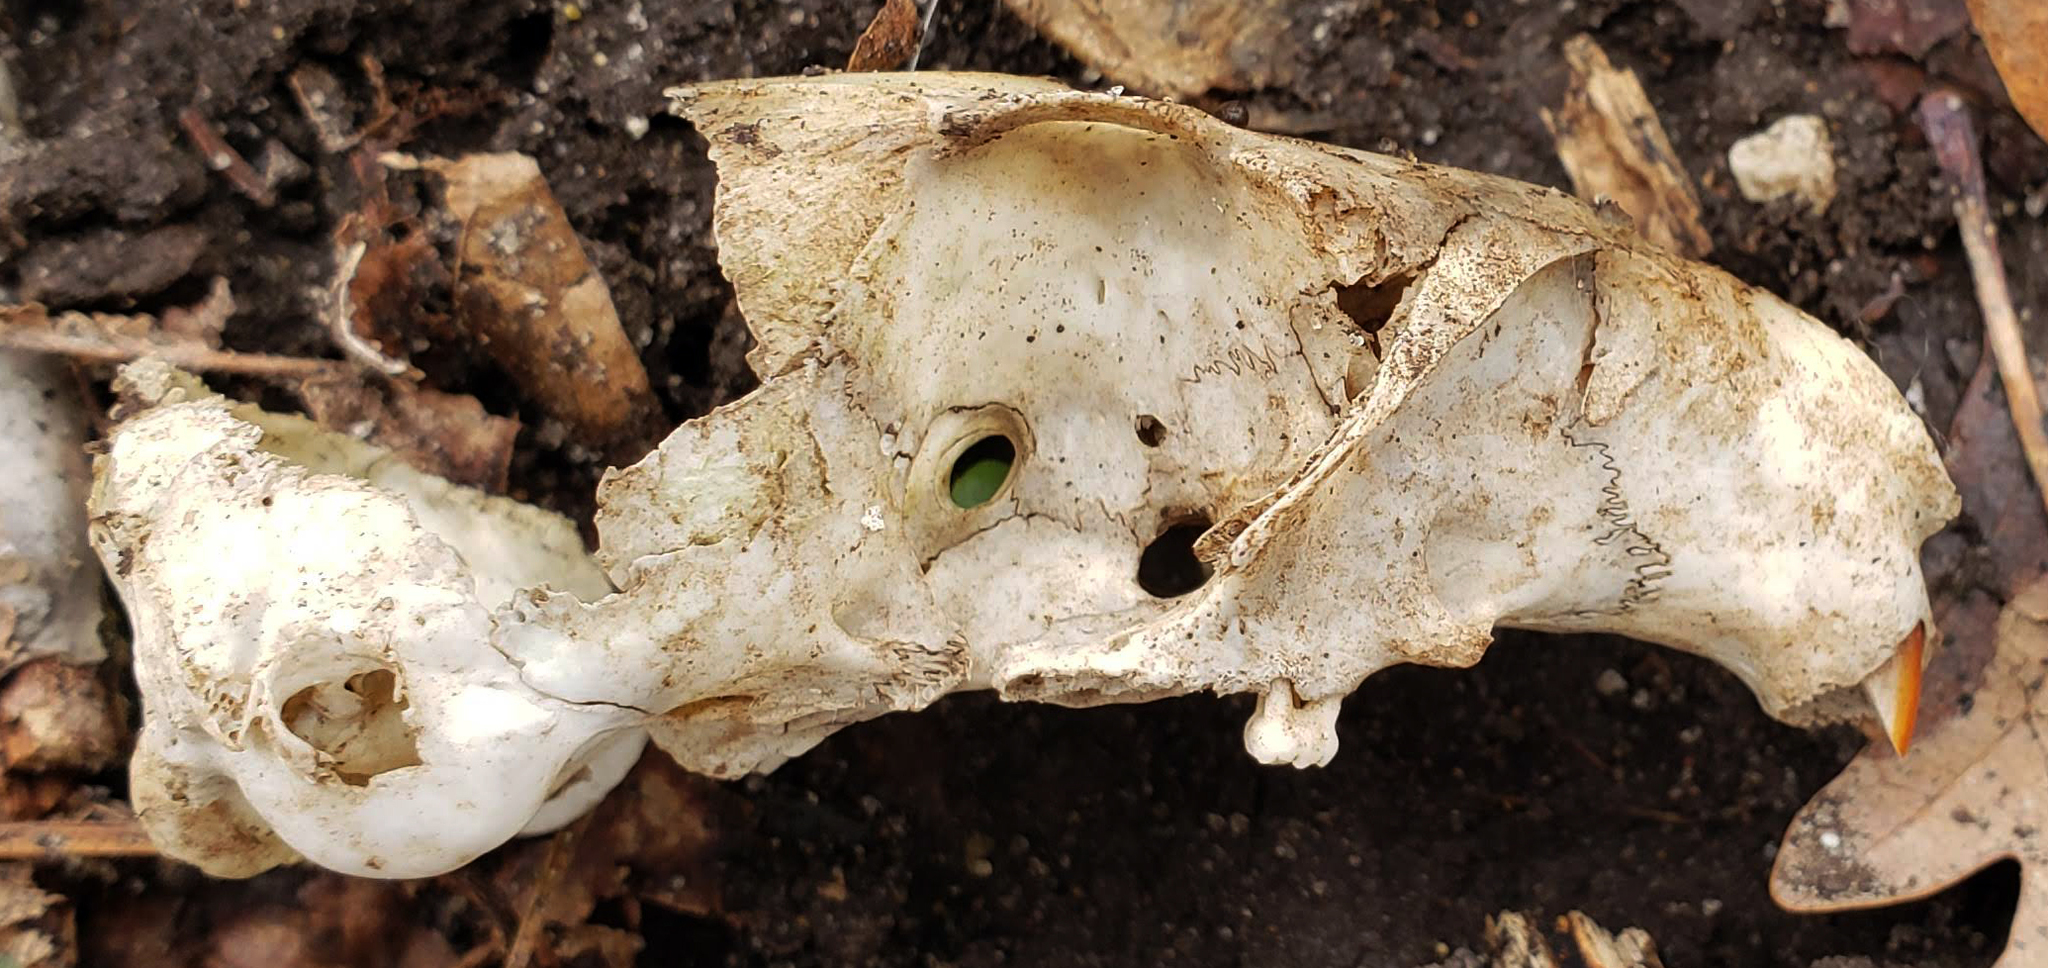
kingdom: Animalia
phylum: Chordata
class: Mammalia
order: Rodentia
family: Sciuridae
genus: Marmota
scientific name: Marmota monax
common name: Groundhog
